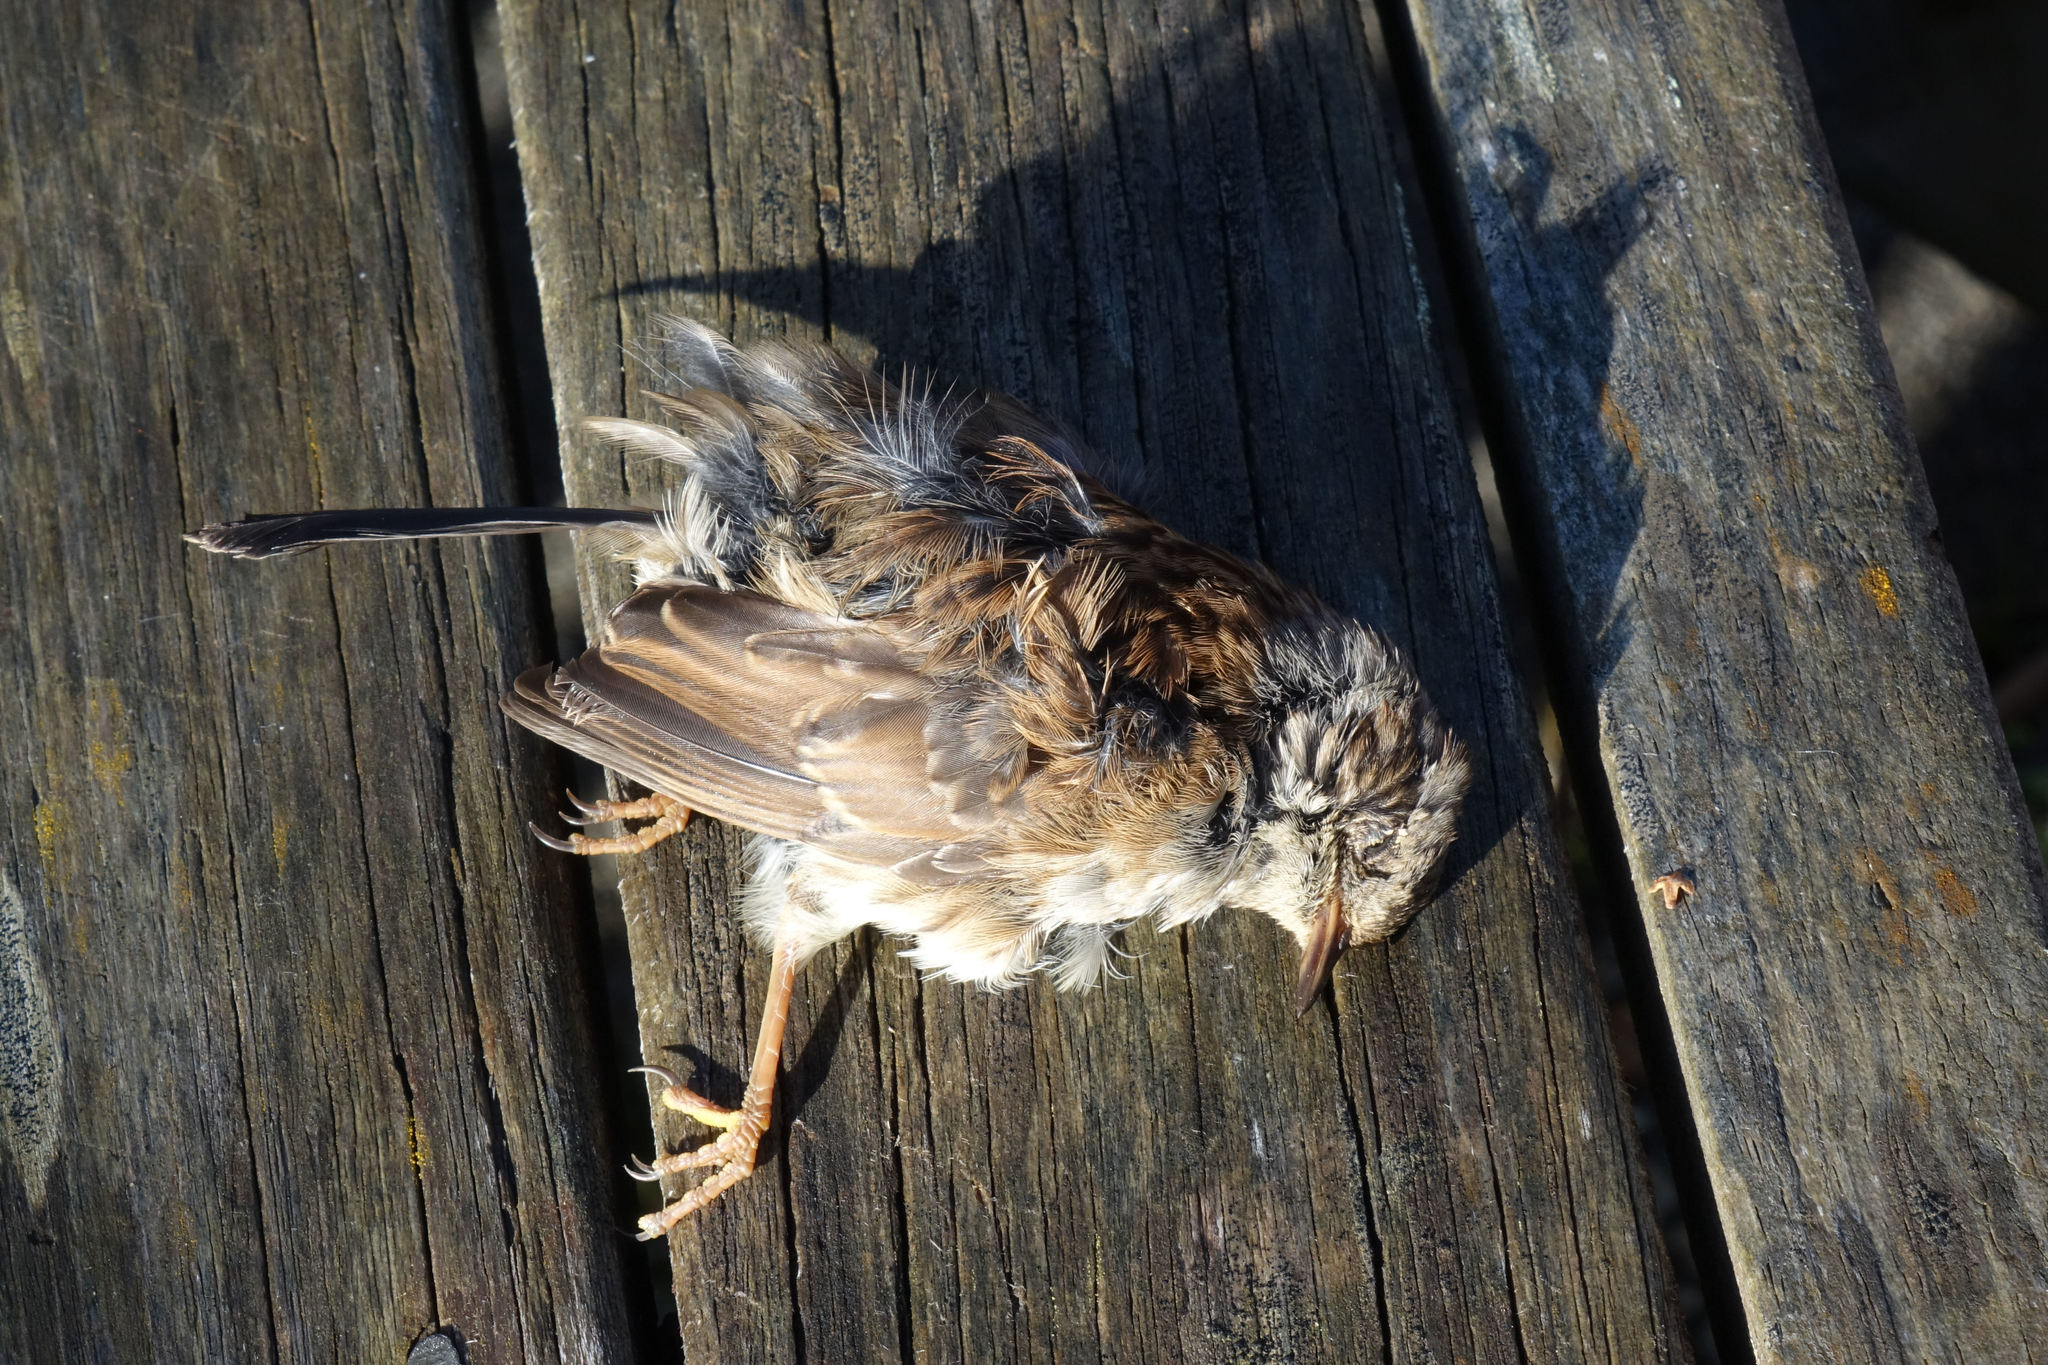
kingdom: Animalia
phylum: Chordata
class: Aves
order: Passeriformes
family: Prunellidae
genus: Prunella
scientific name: Prunella modularis
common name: Dunnock
